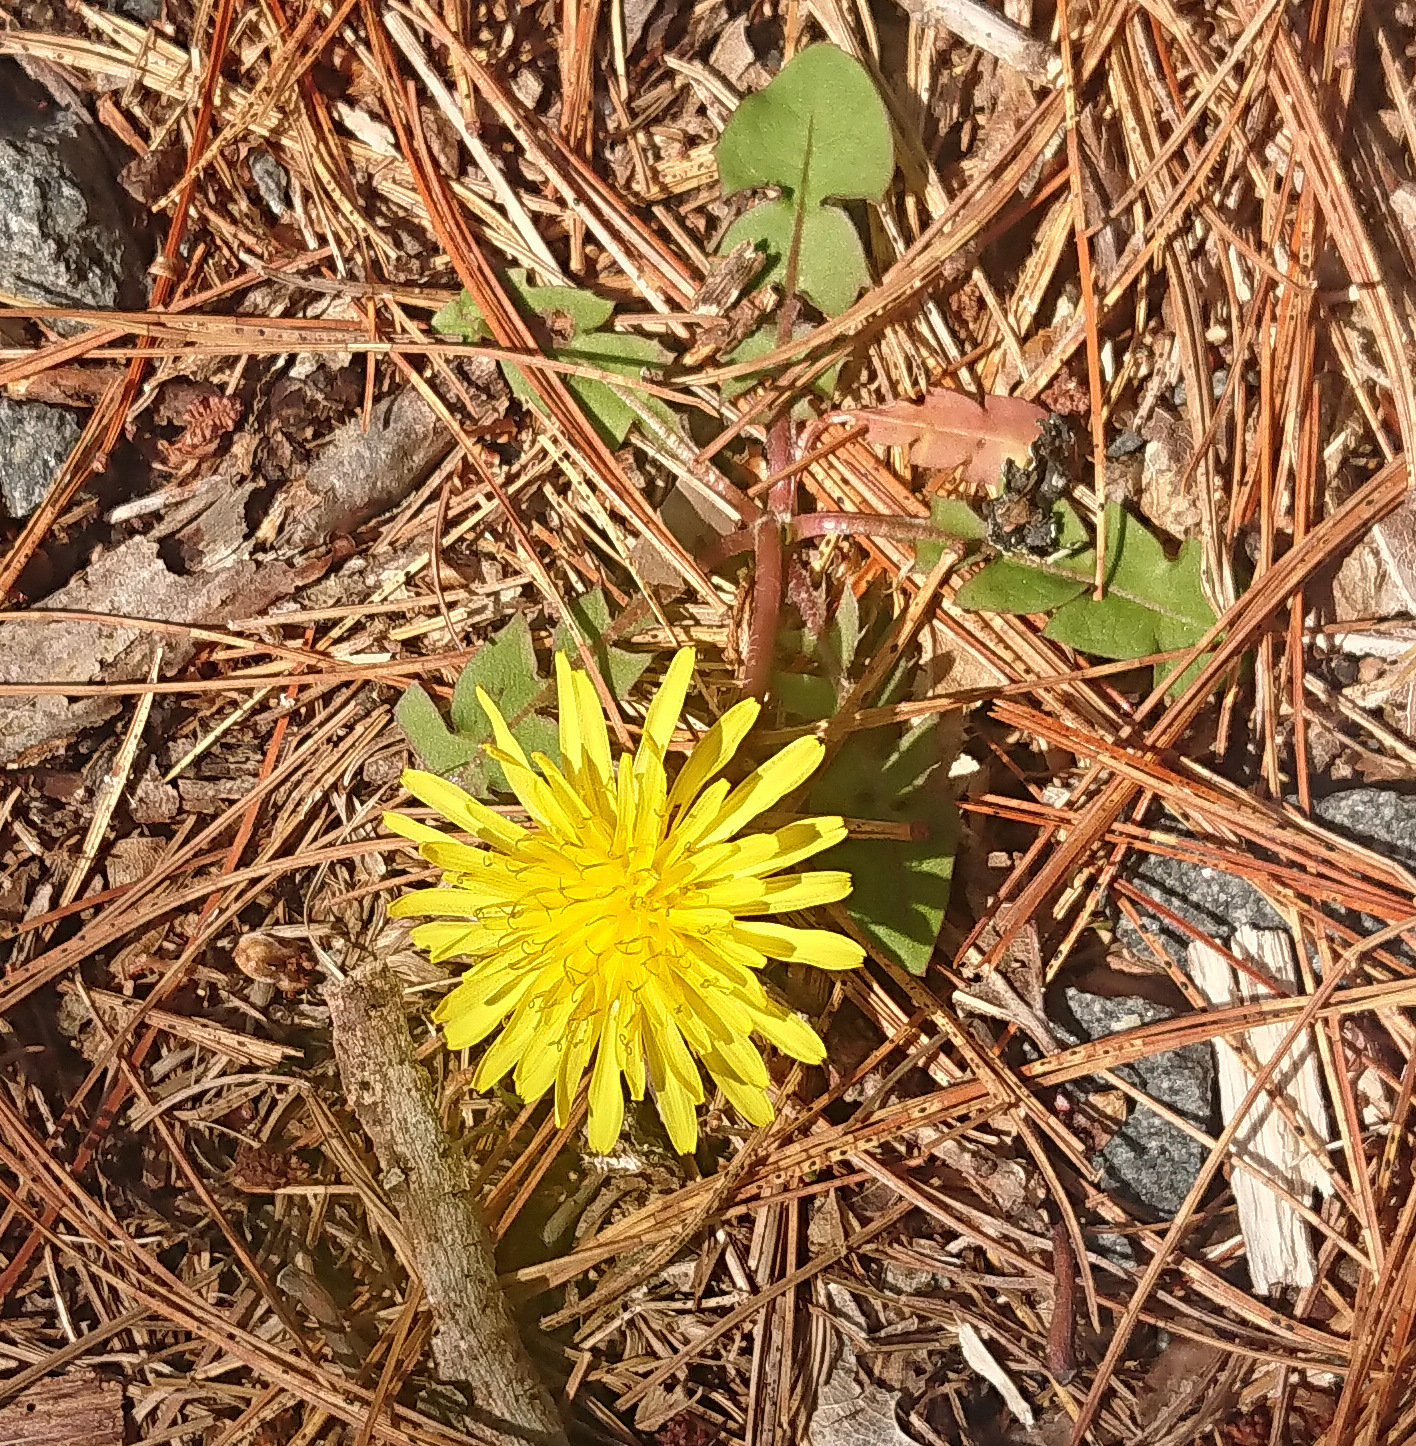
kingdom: Plantae
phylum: Tracheophyta
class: Magnoliopsida
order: Asterales
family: Asteraceae
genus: Taraxacum
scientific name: Taraxacum officinale
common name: Common dandelion
